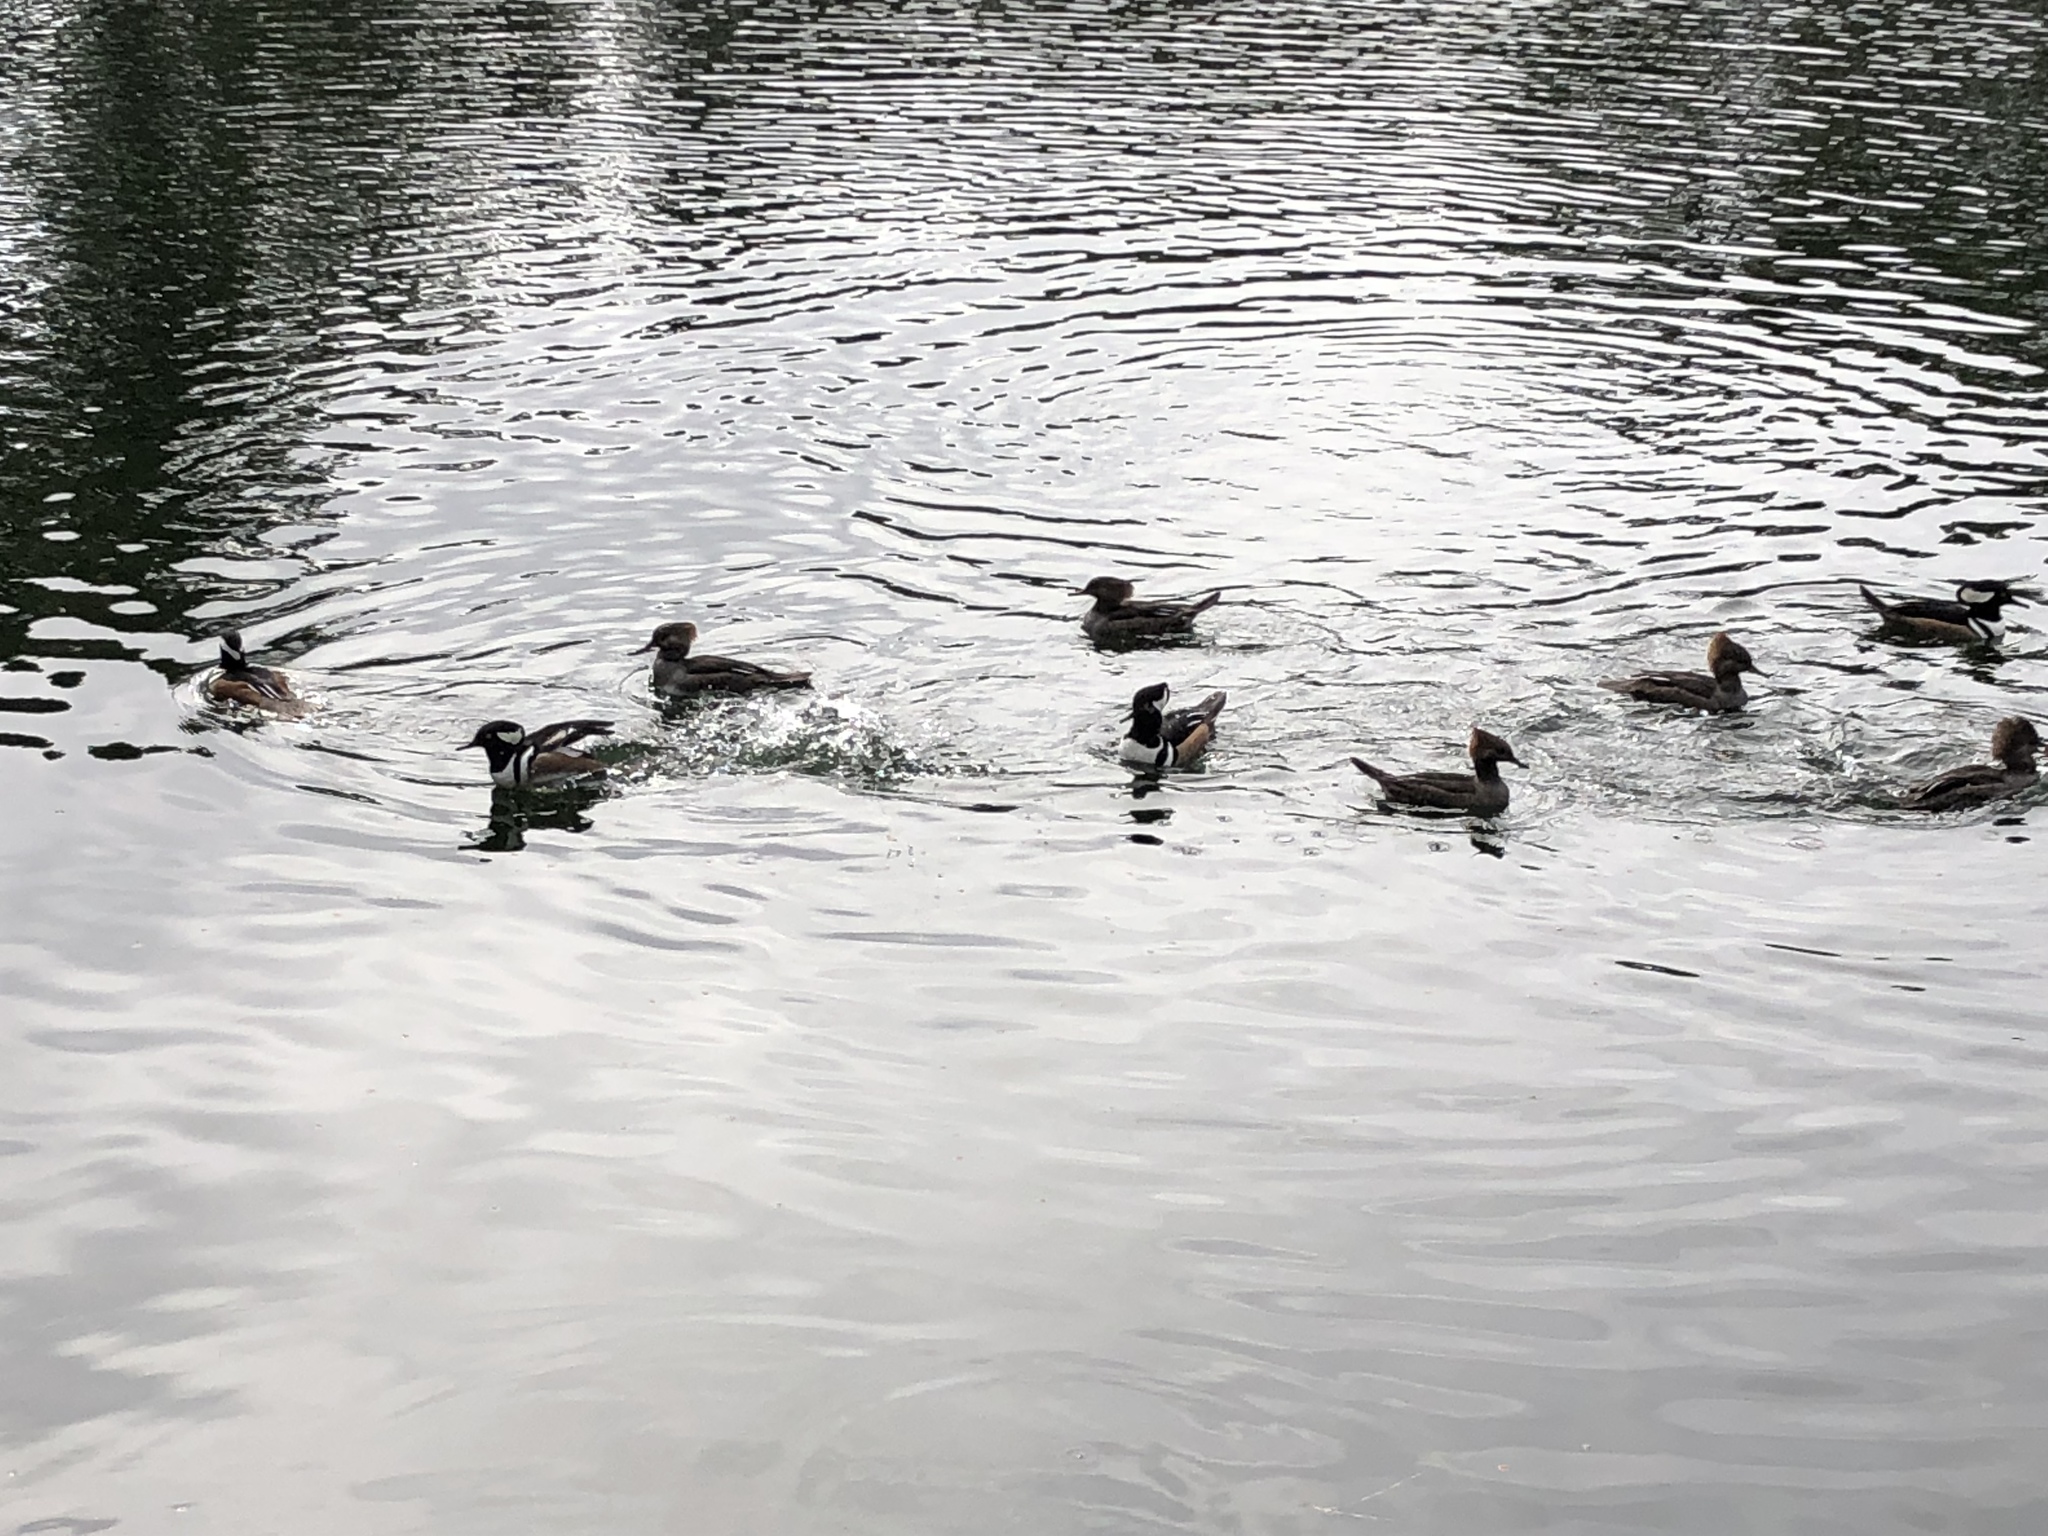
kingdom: Animalia
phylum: Chordata
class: Aves
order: Anseriformes
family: Anatidae
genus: Lophodytes
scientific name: Lophodytes cucullatus
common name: Hooded merganser
